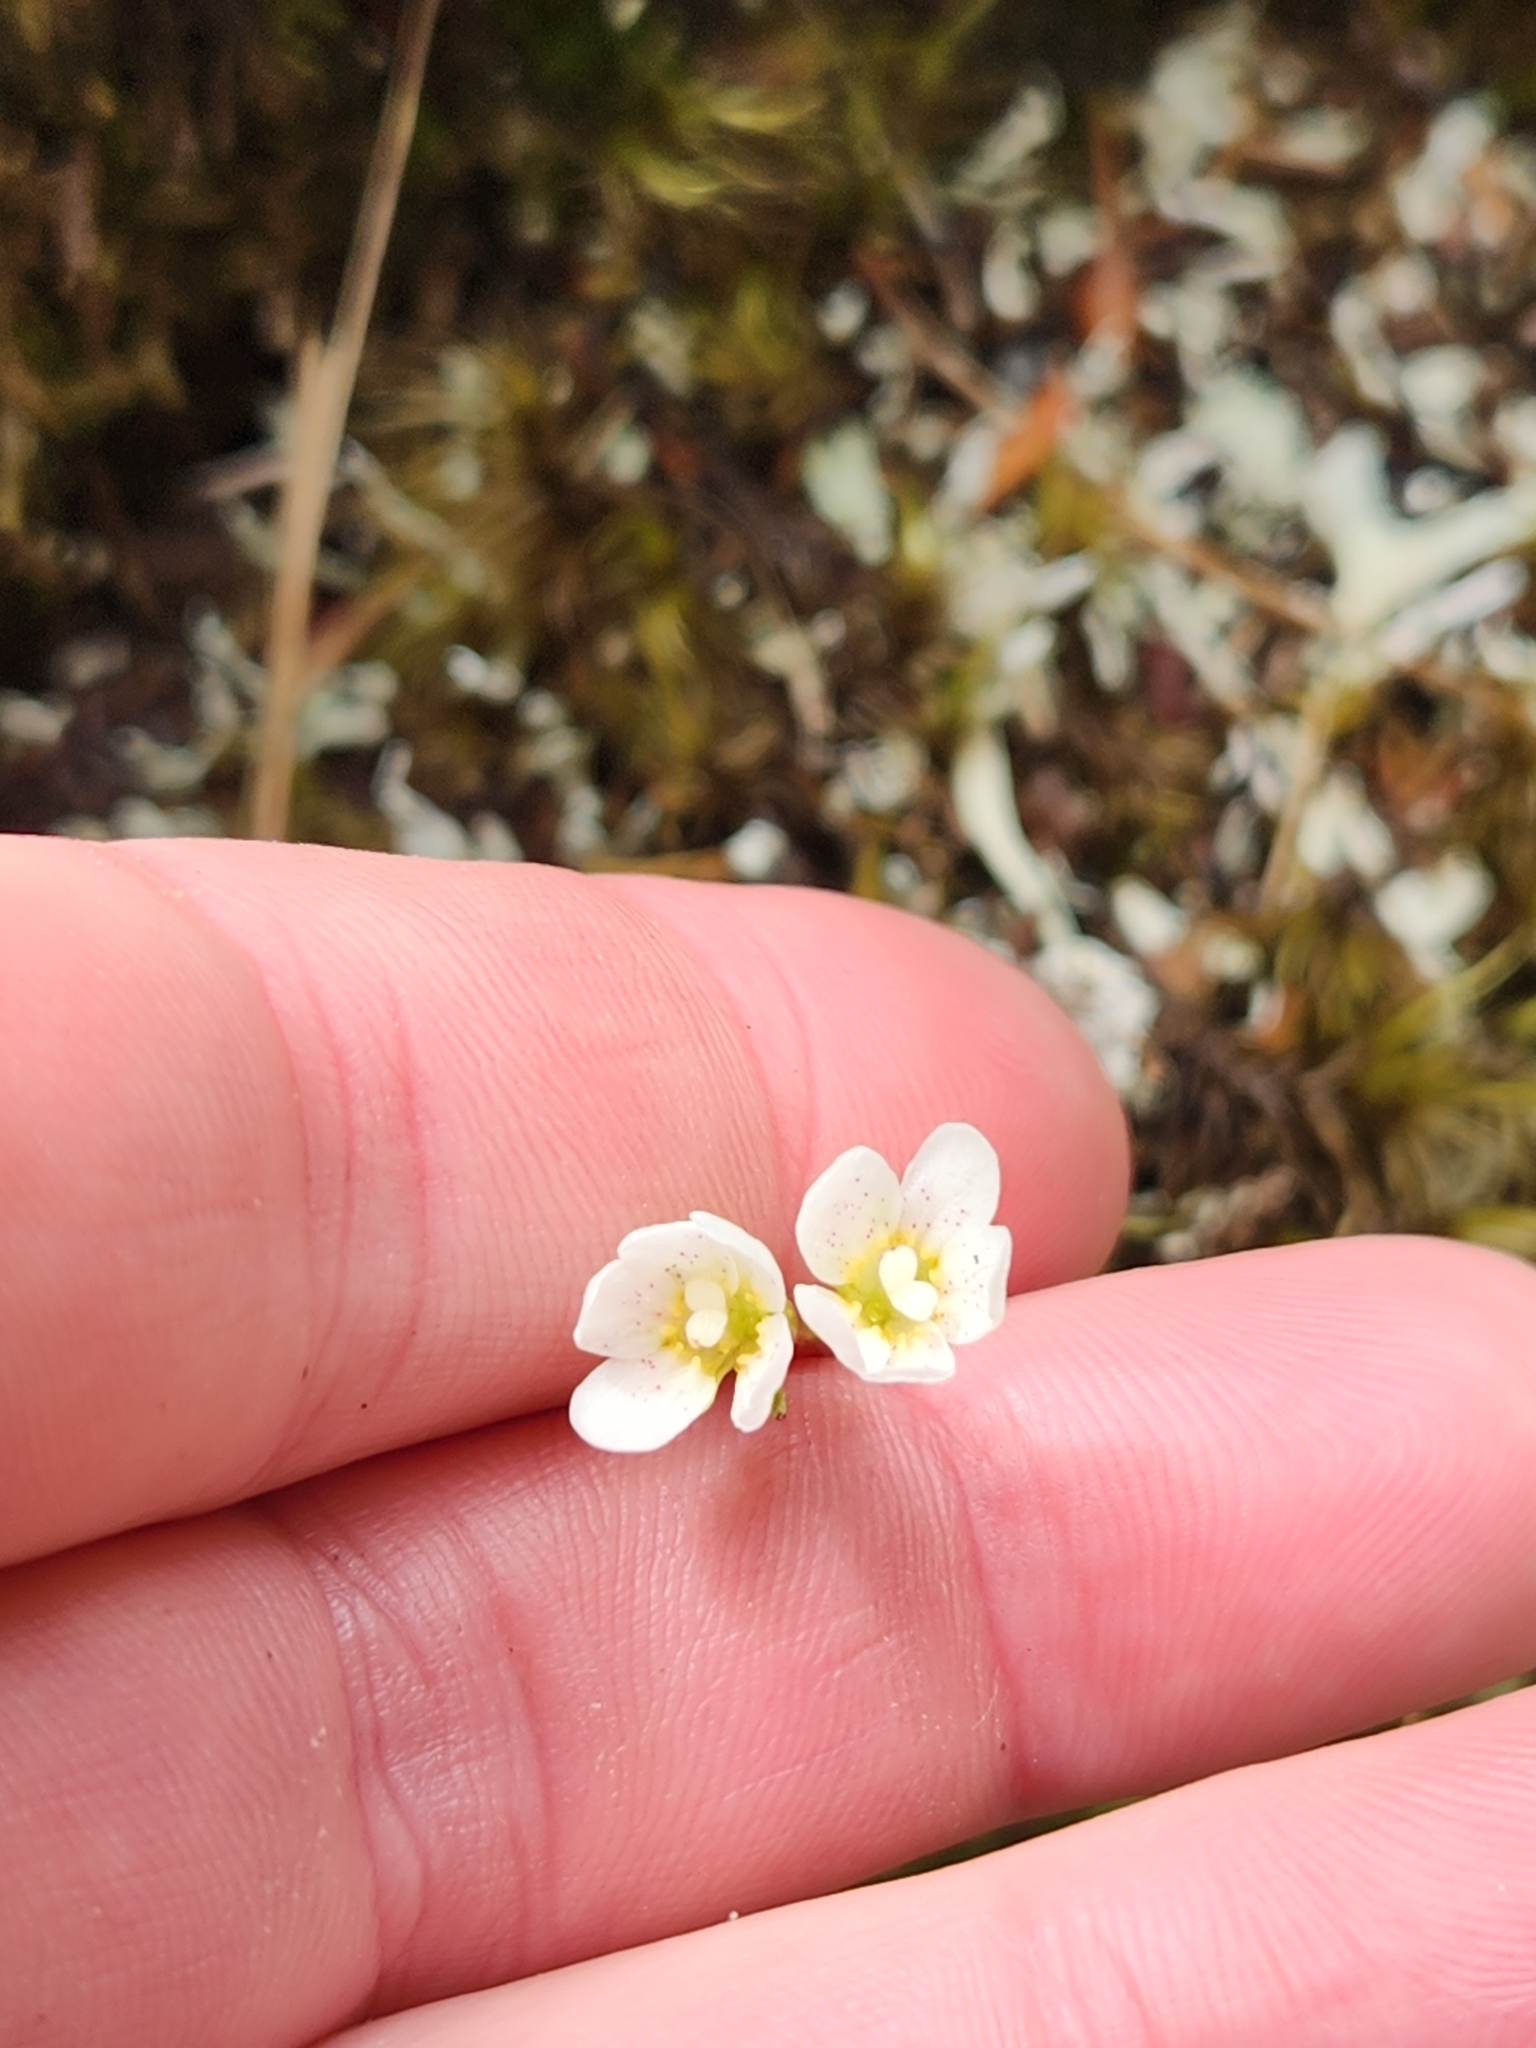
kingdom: Plantae
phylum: Tracheophyta
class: Magnoliopsida
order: Asterales
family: Stylidiaceae
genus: Forstera
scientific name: Forstera tenella
